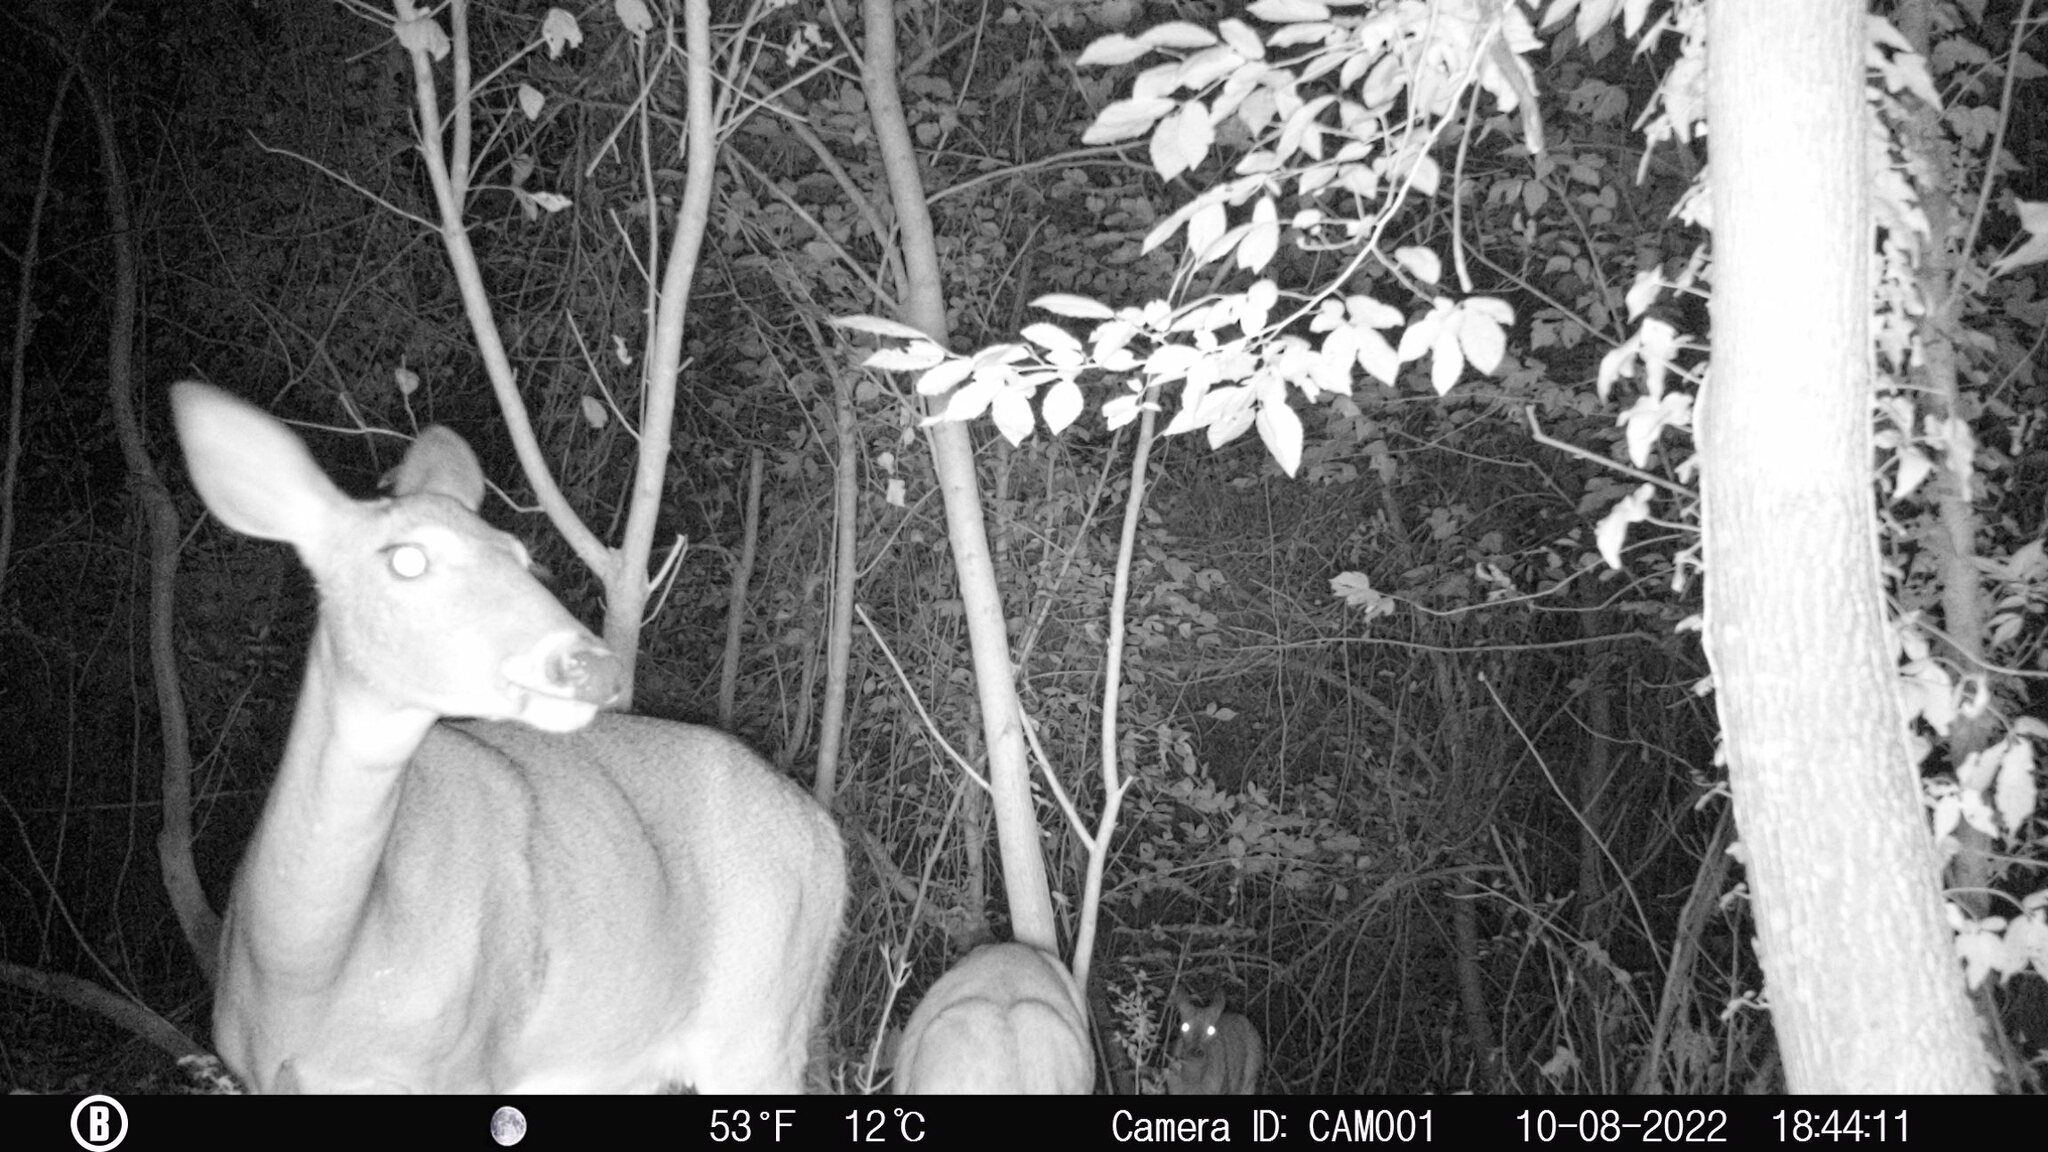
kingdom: Animalia
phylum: Chordata
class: Mammalia
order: Artiodactyla
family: Cervidae
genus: Odocoileus
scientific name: Odocoileus virginianus
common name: White-tailed deer
